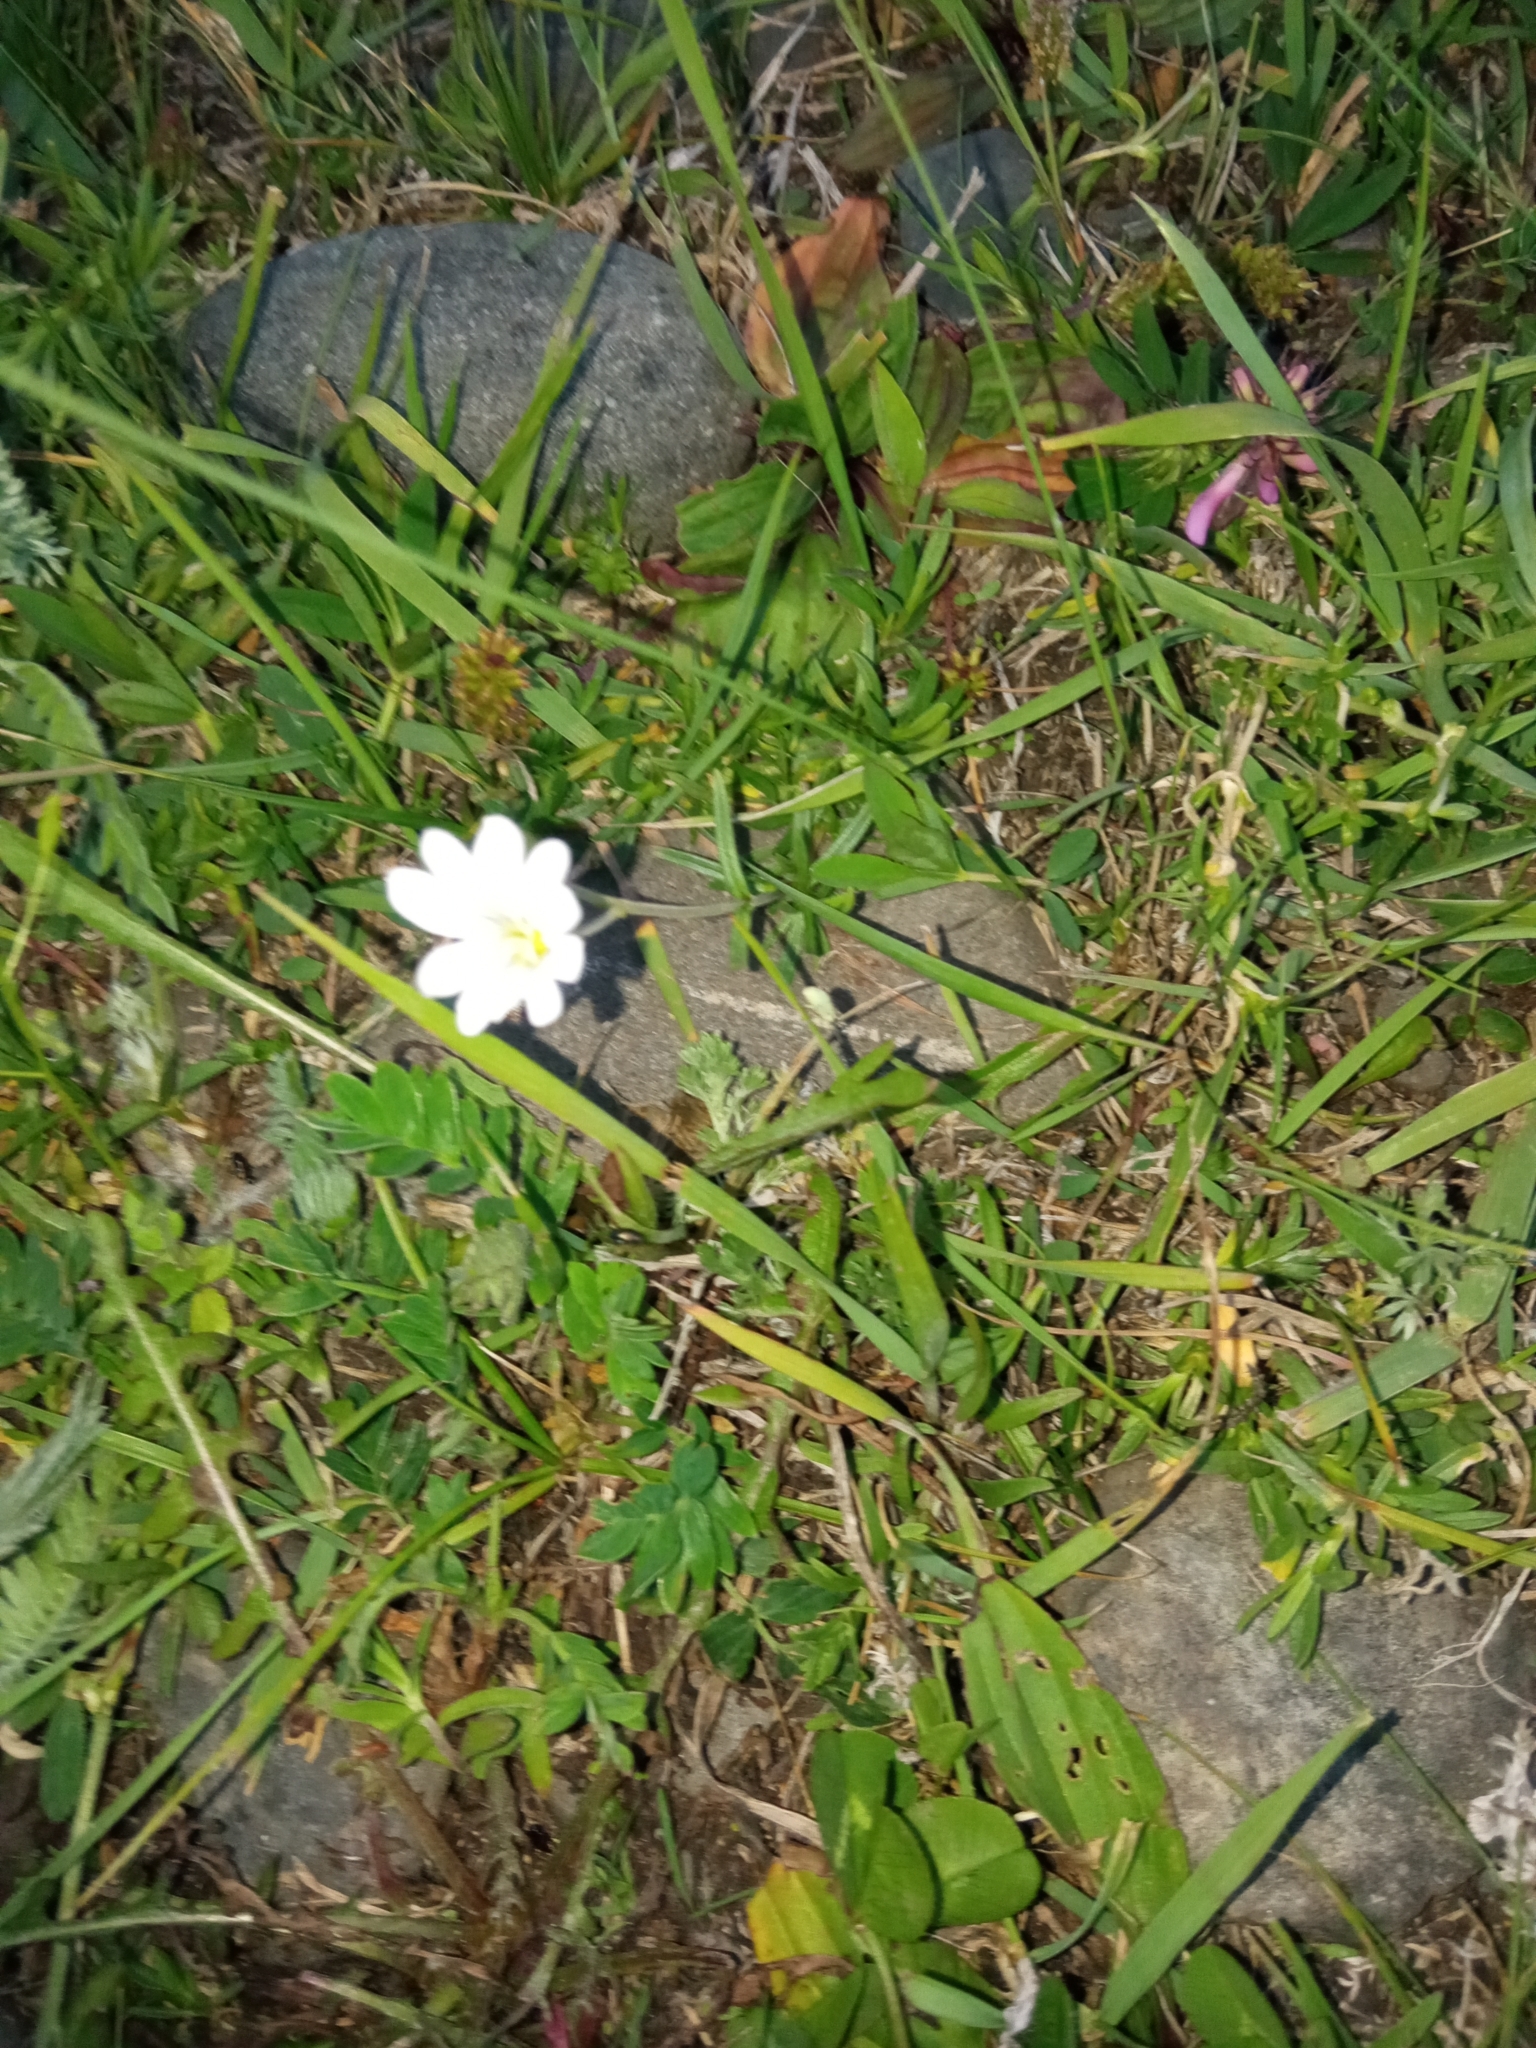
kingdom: Plantae
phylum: Tracheophyta
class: Magnoliopsida
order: Caryophyllales
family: Caryophyllaceae
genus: Cerastium
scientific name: Cerastium arvense
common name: Field mouse-ear
